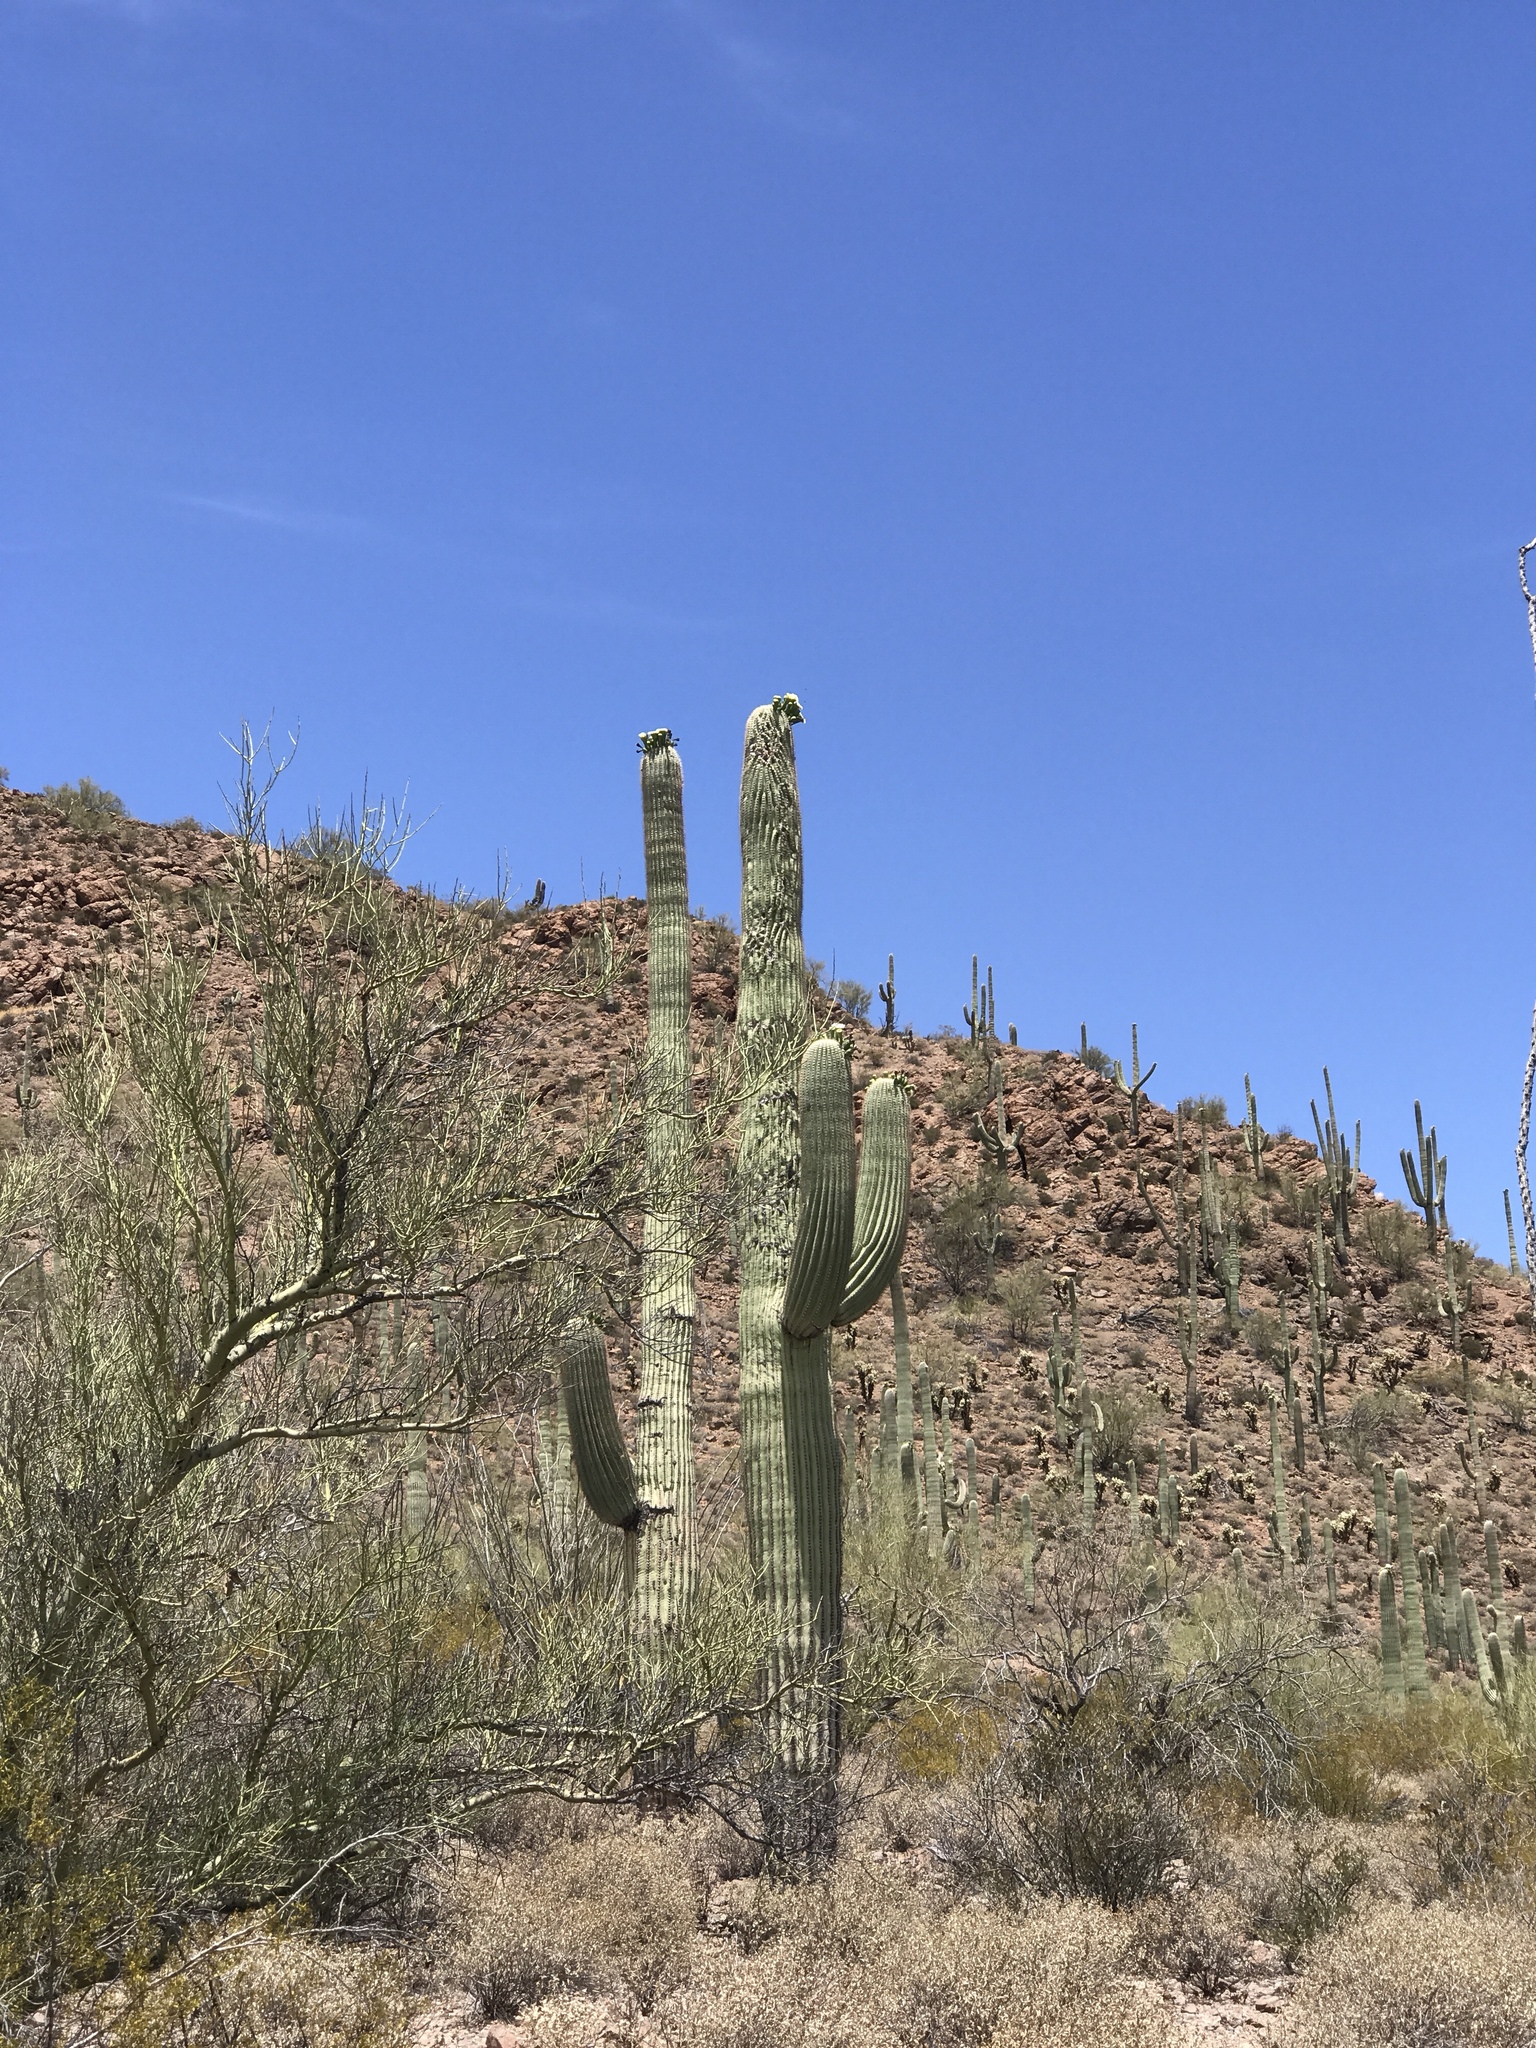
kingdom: Plantae
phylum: Tracheophyta
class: Magnoliopsida
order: Caryophyllales
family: Cactaceae
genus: Carnegiea
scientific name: Carnegiea gigantea
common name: Saguaro
